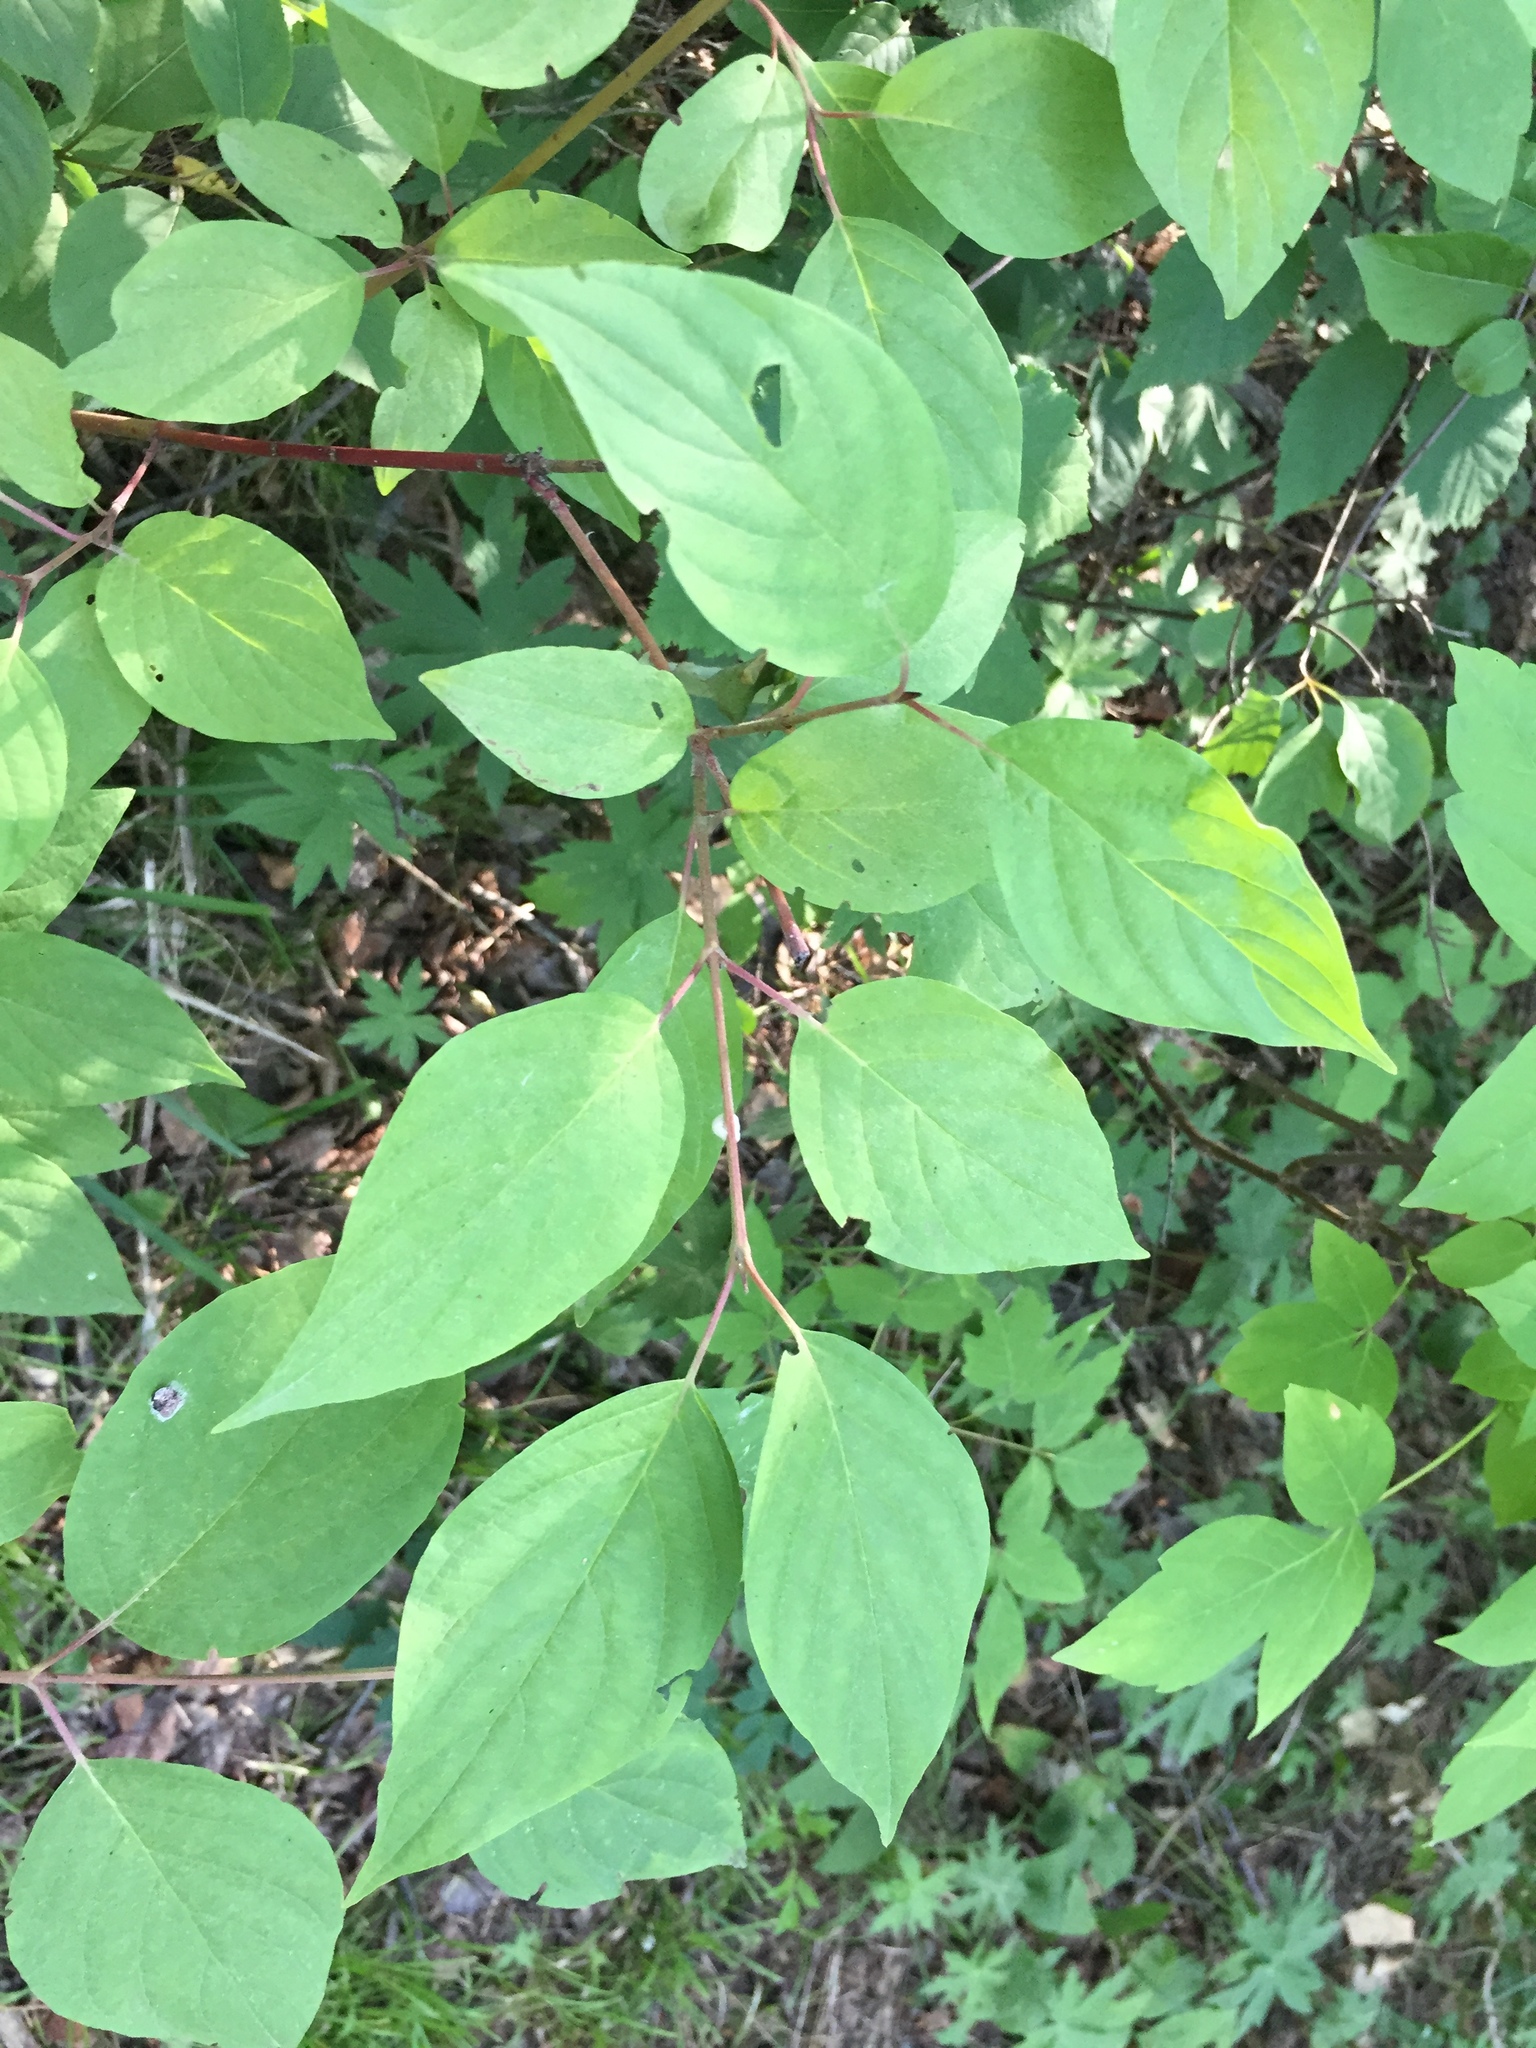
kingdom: Plantae
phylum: Tracheophyta
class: Magnoliopsida
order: Cornales
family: Cornaceae
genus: Cornus
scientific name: Cornus sericea
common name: Red-osier dogwood
